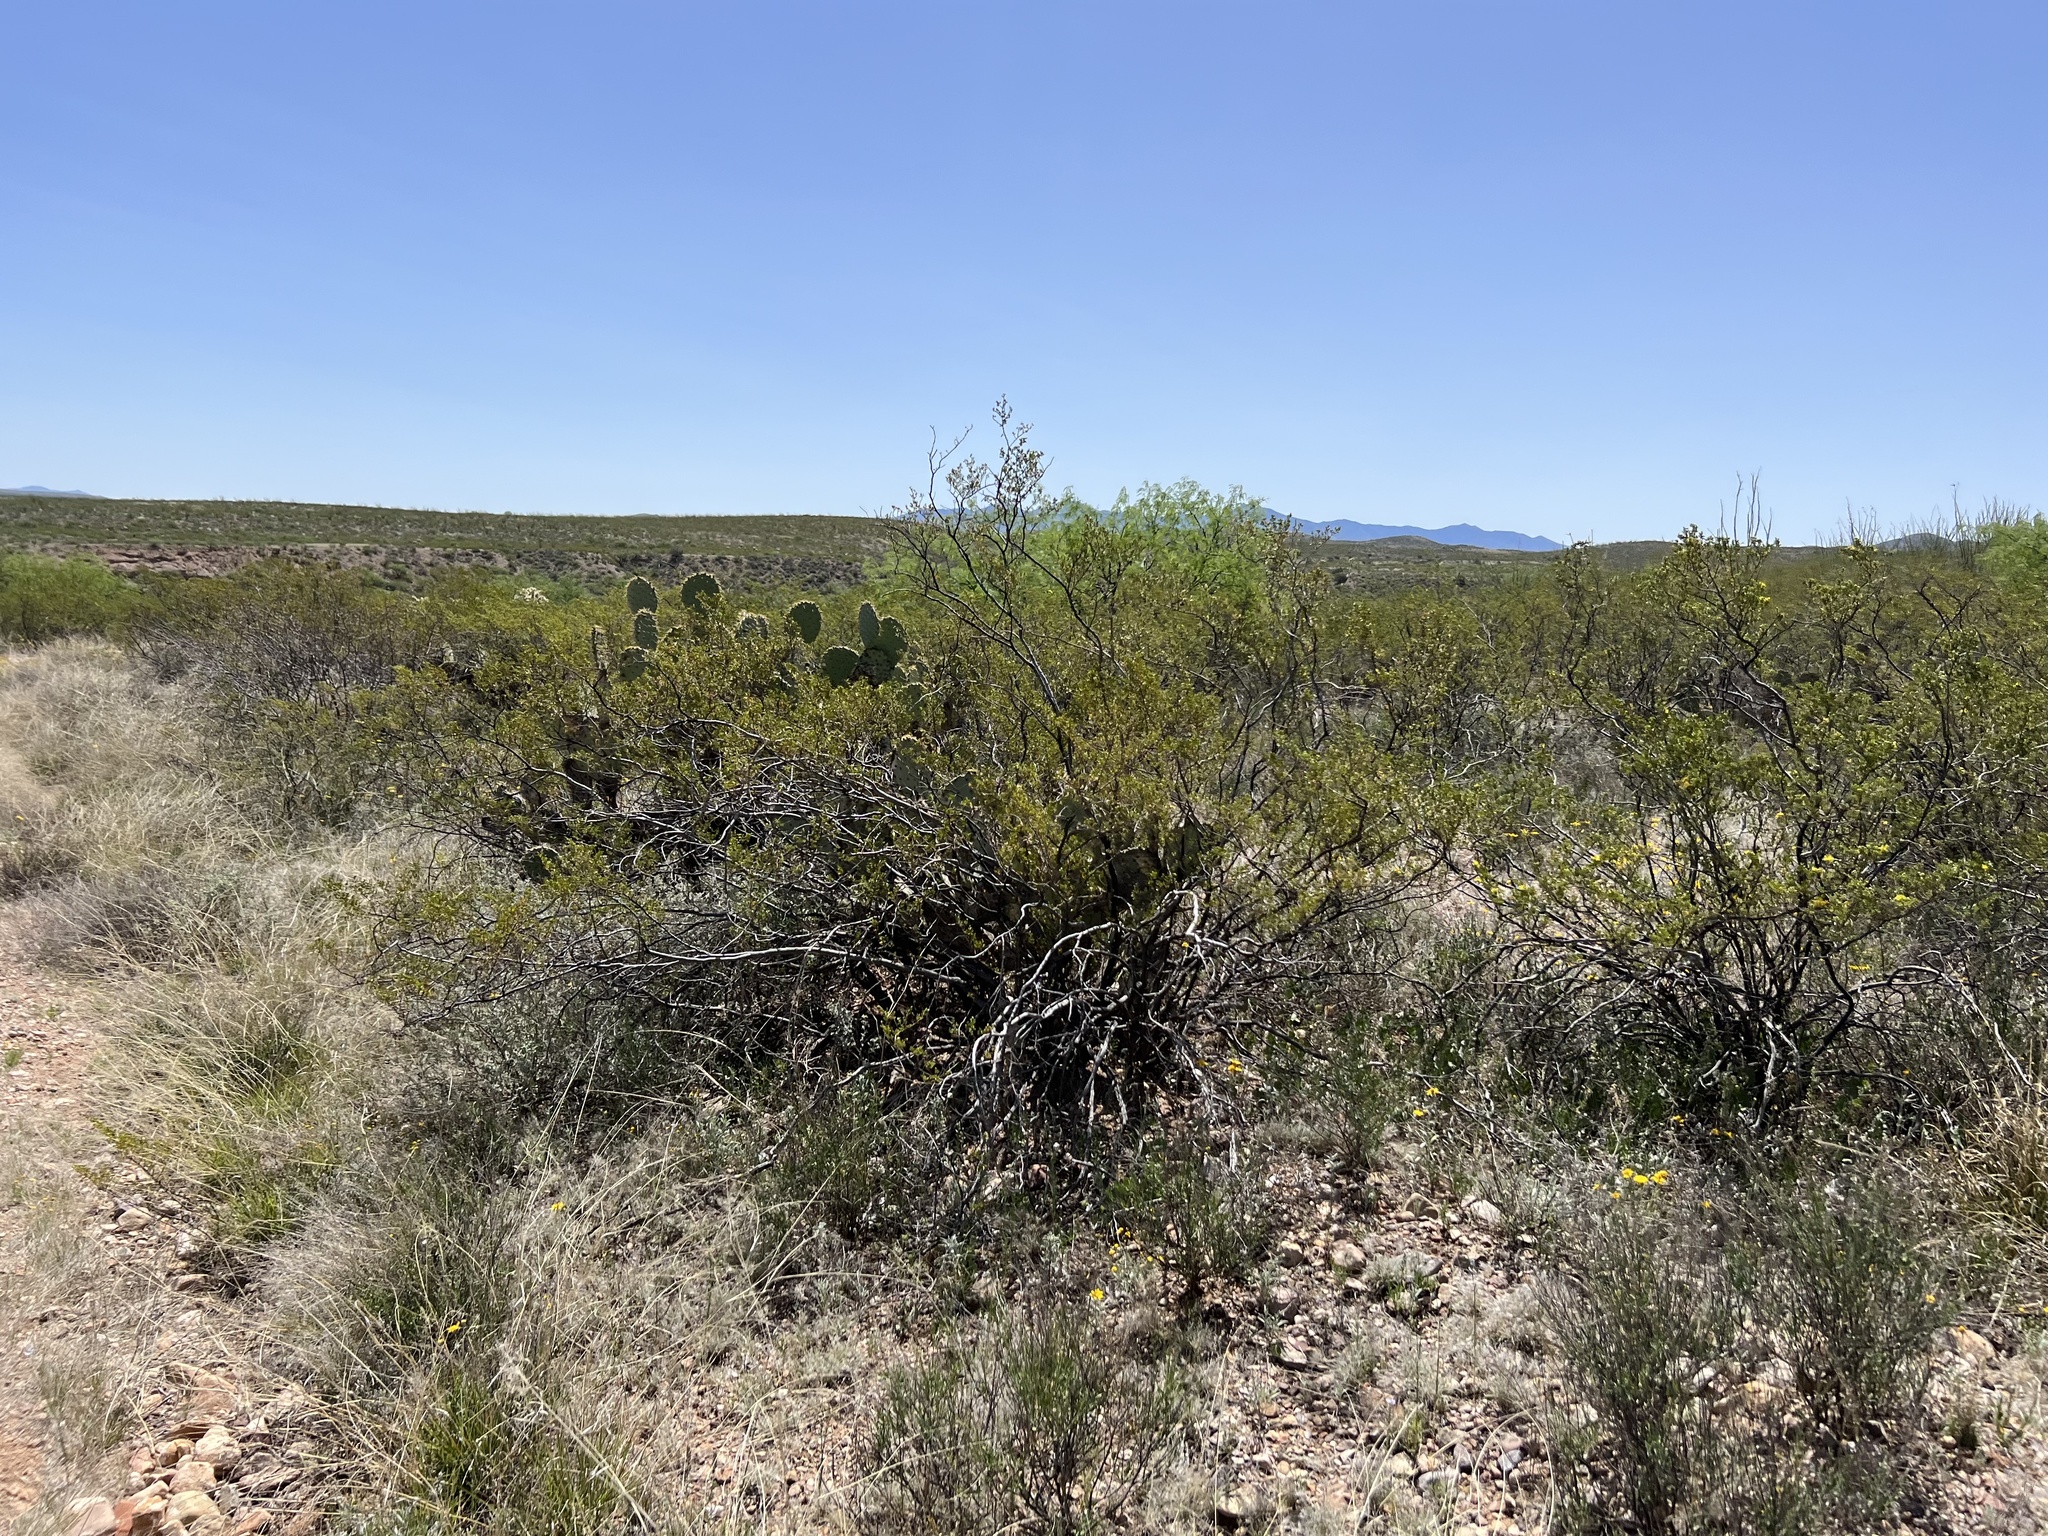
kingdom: Plantae
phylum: Tracheophyta
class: Magnoliopsida
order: Zygophyllales
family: Zygophyllaceae
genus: Larrea
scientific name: Larrea tridentata
